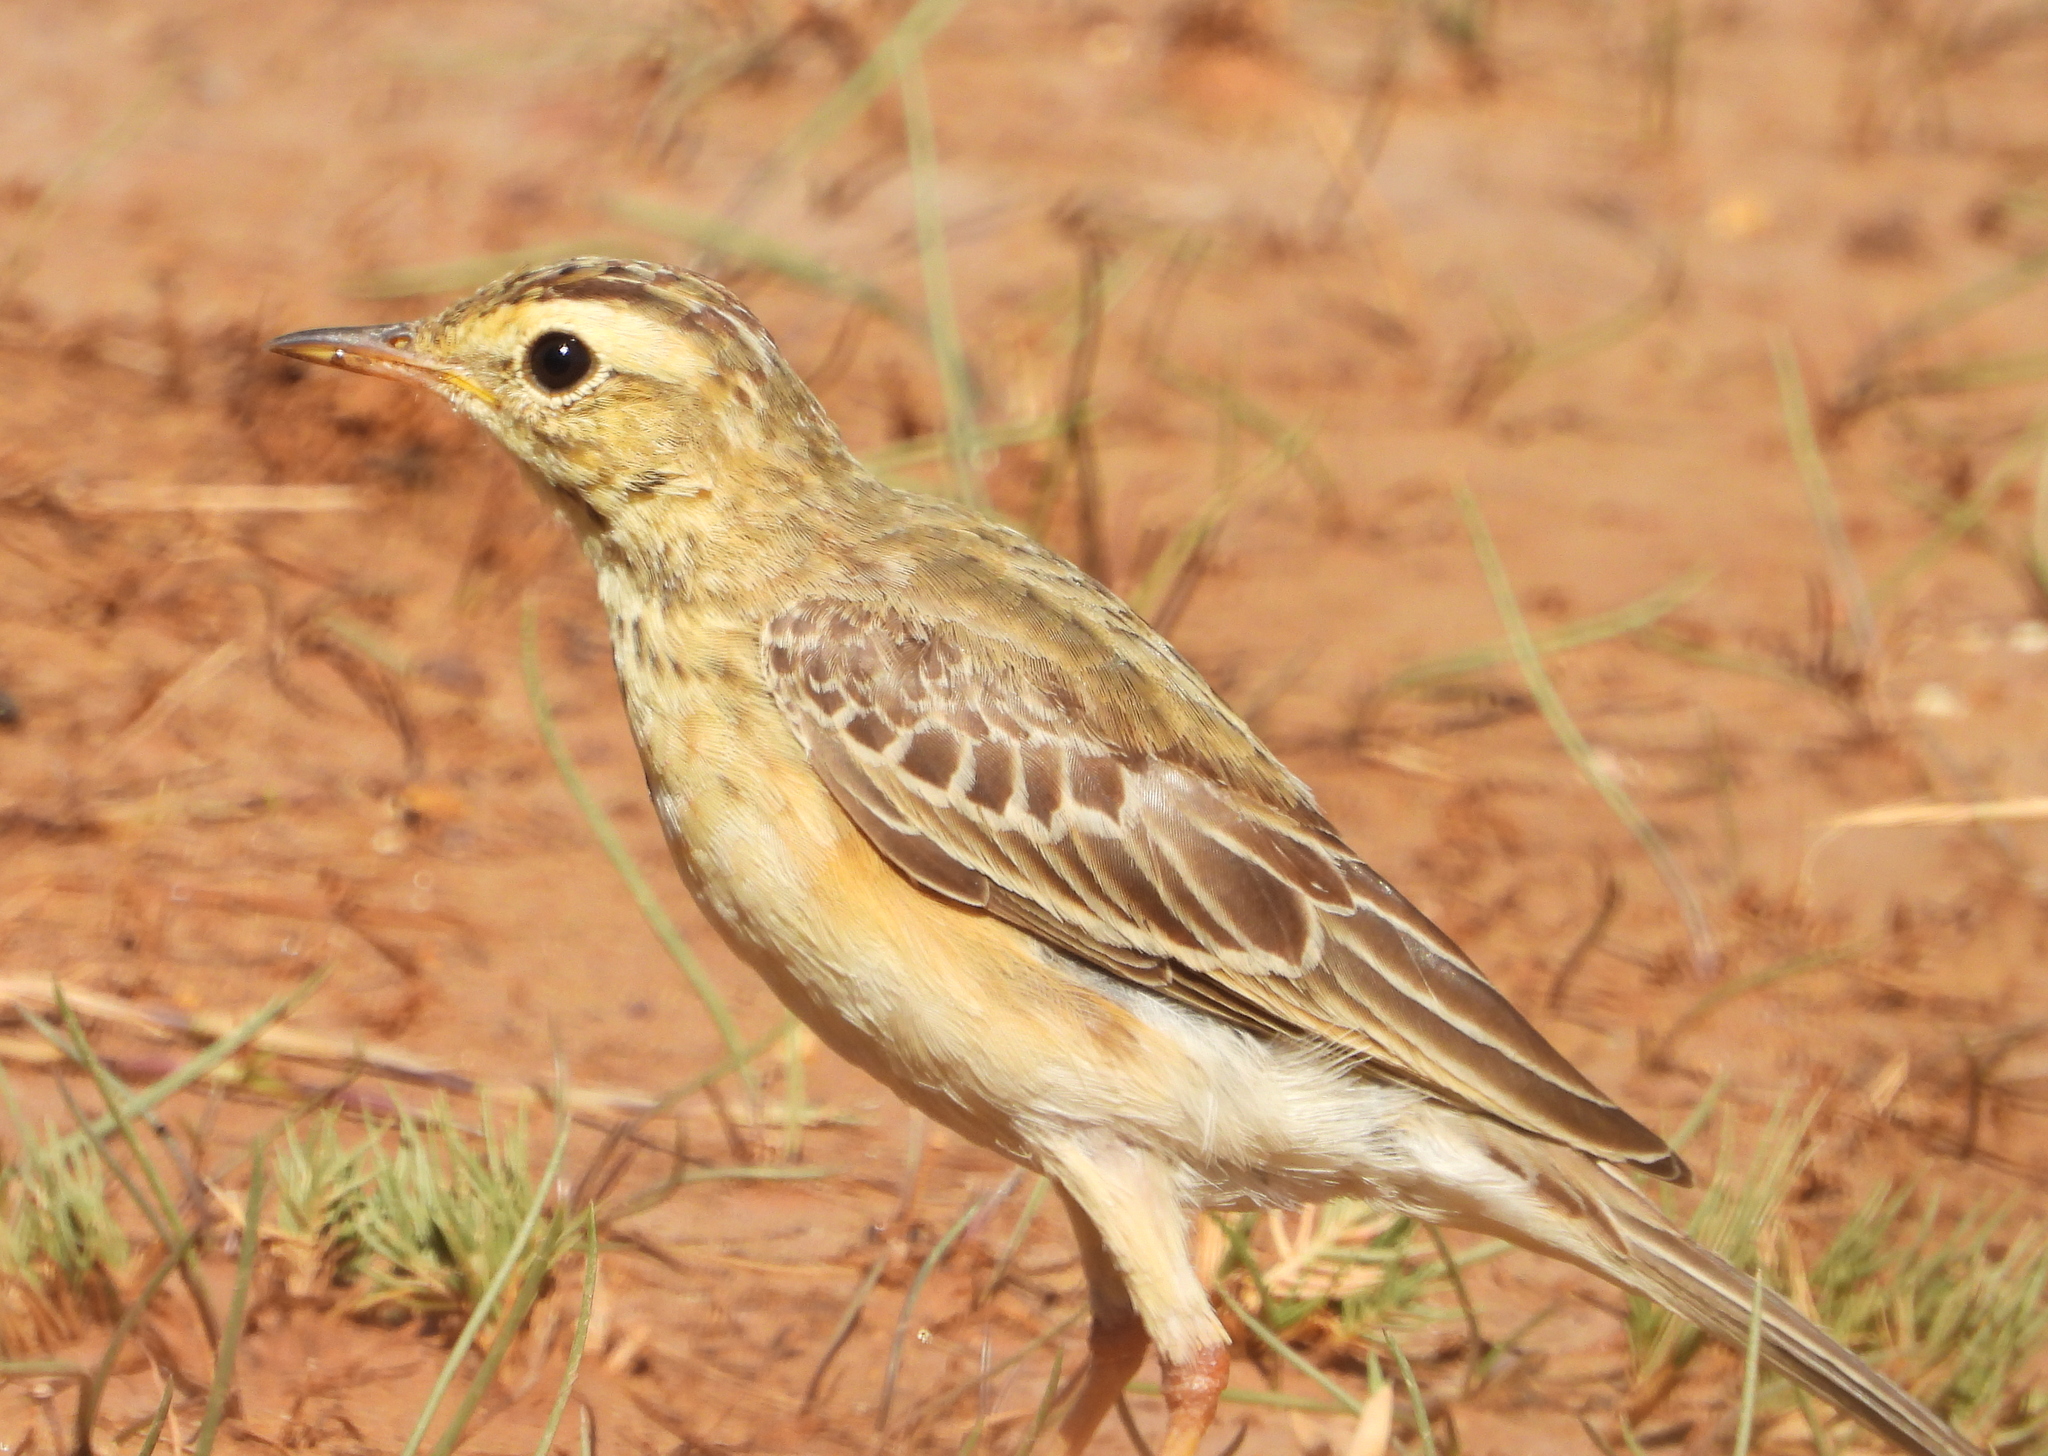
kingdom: Animalia
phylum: Chordata
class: Aves
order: Passeriformes
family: Motacillidae
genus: Anthus
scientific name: Anthus cinnamomeus
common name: African pipit
